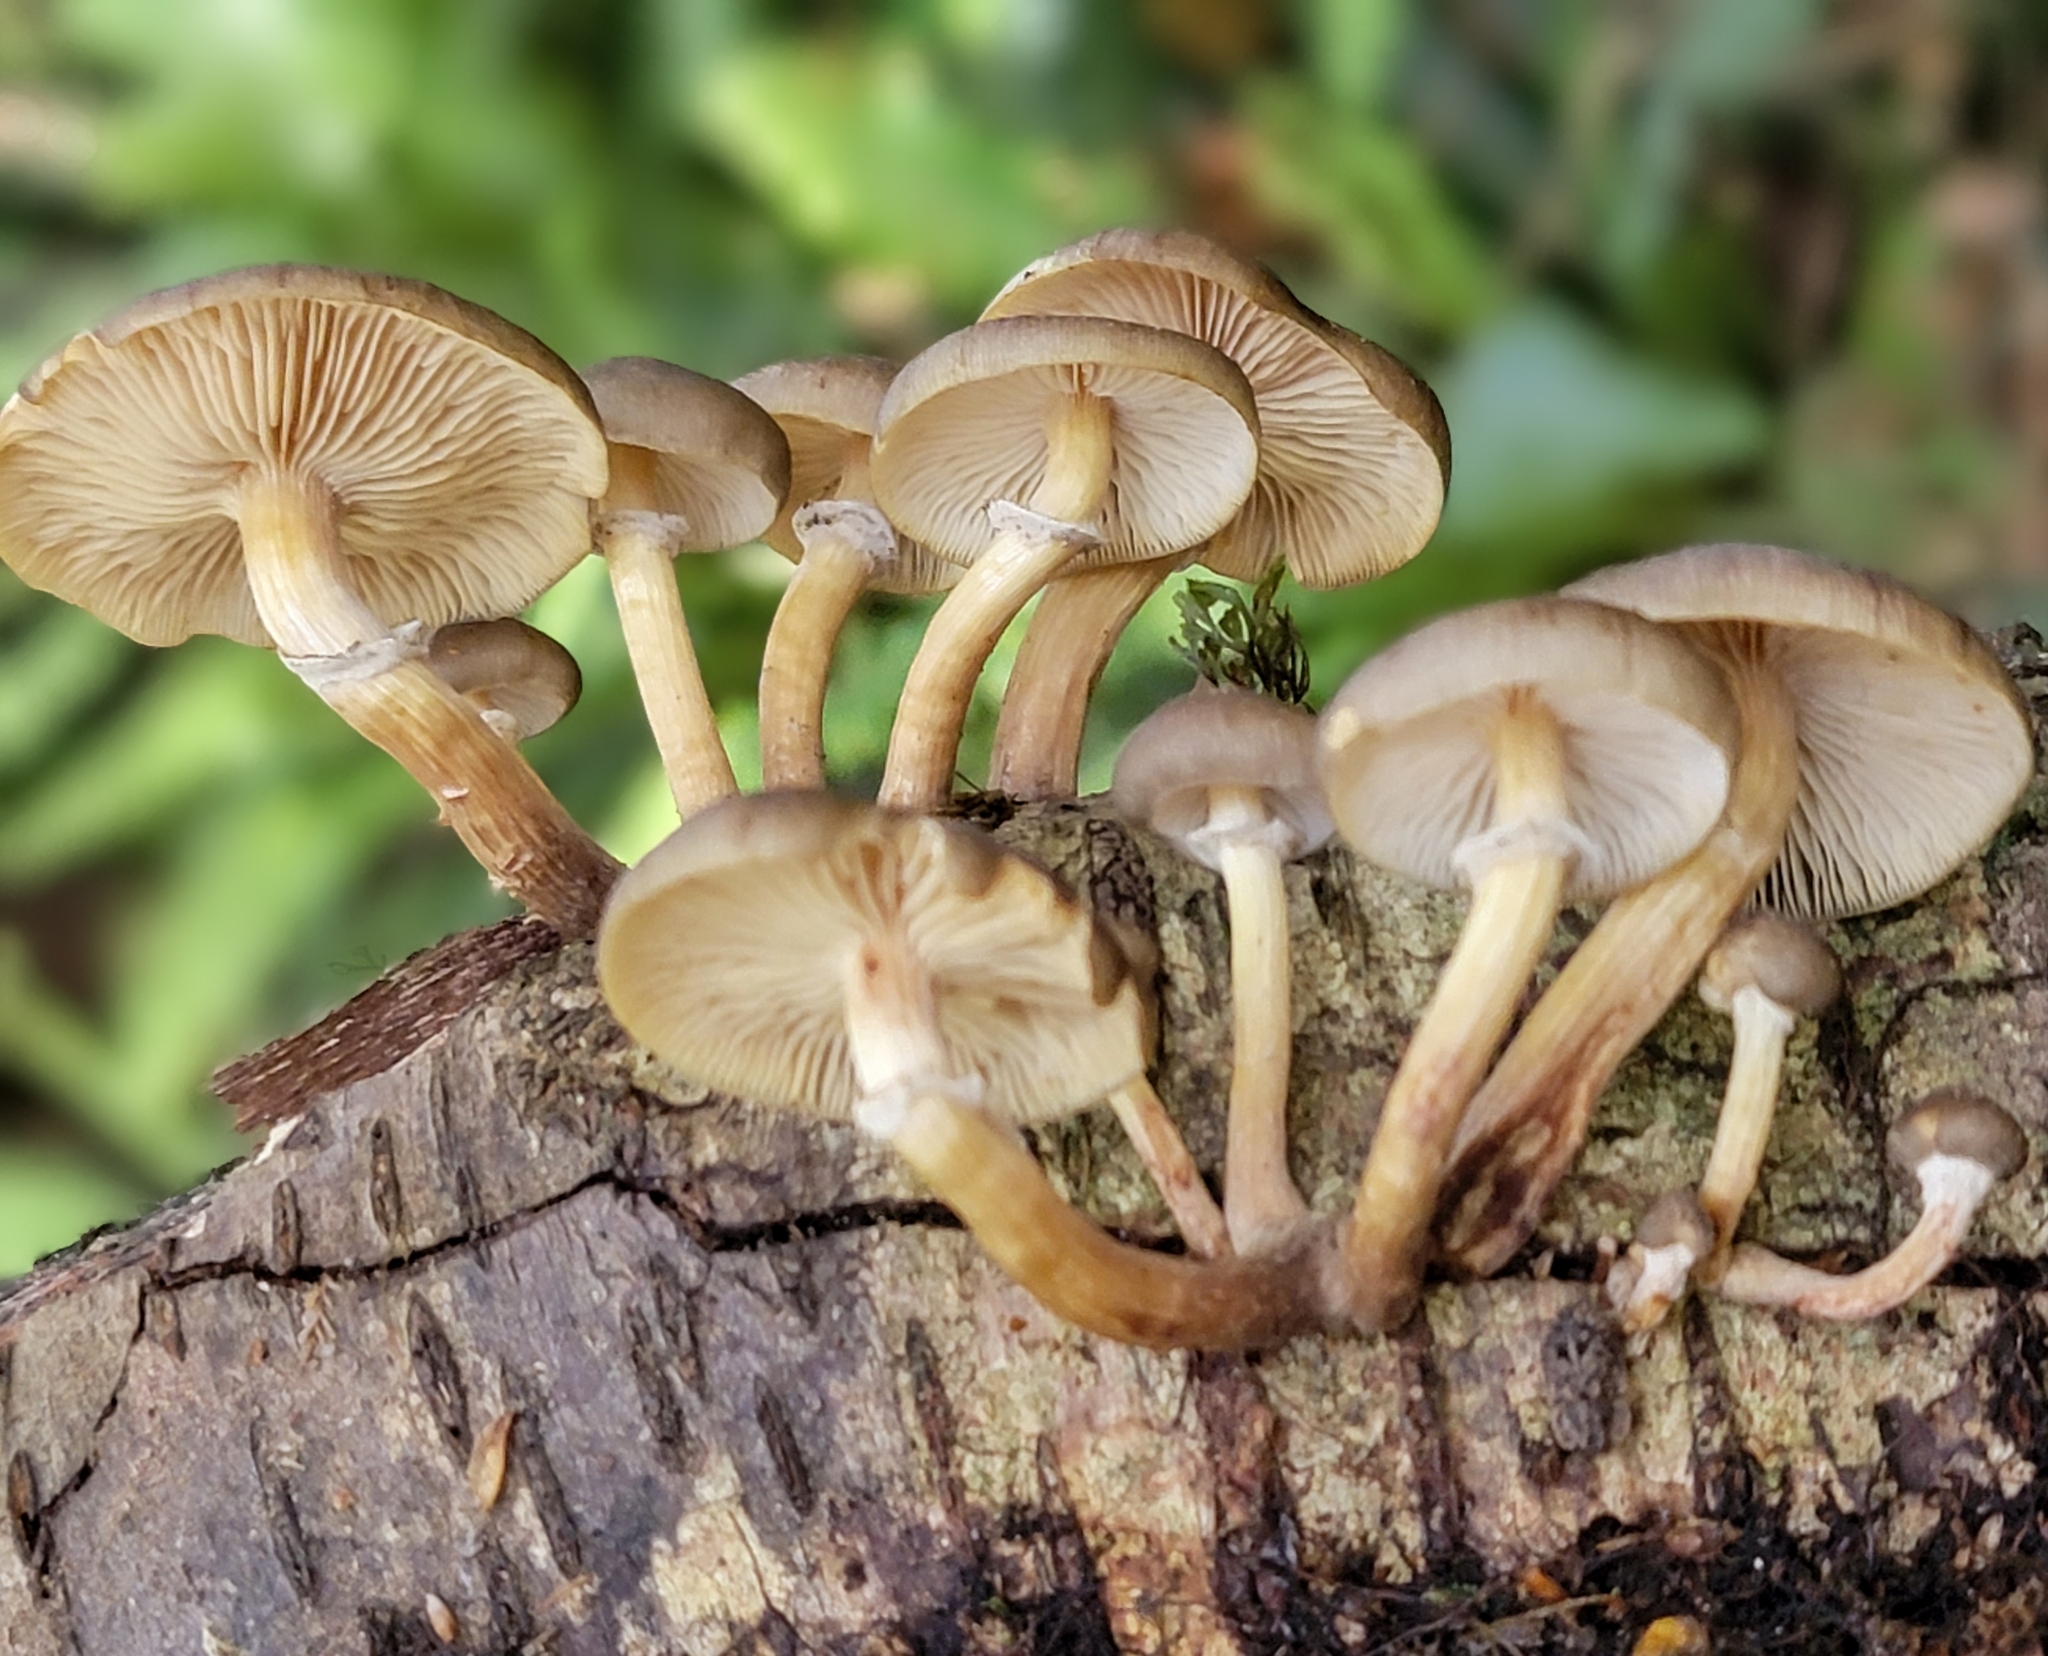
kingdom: Fungi
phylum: Basidiomycota
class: Agaricomycetes
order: Agaricales
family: Physalacriaceae
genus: Armillaria
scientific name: Armillaria novae-zelandiae
